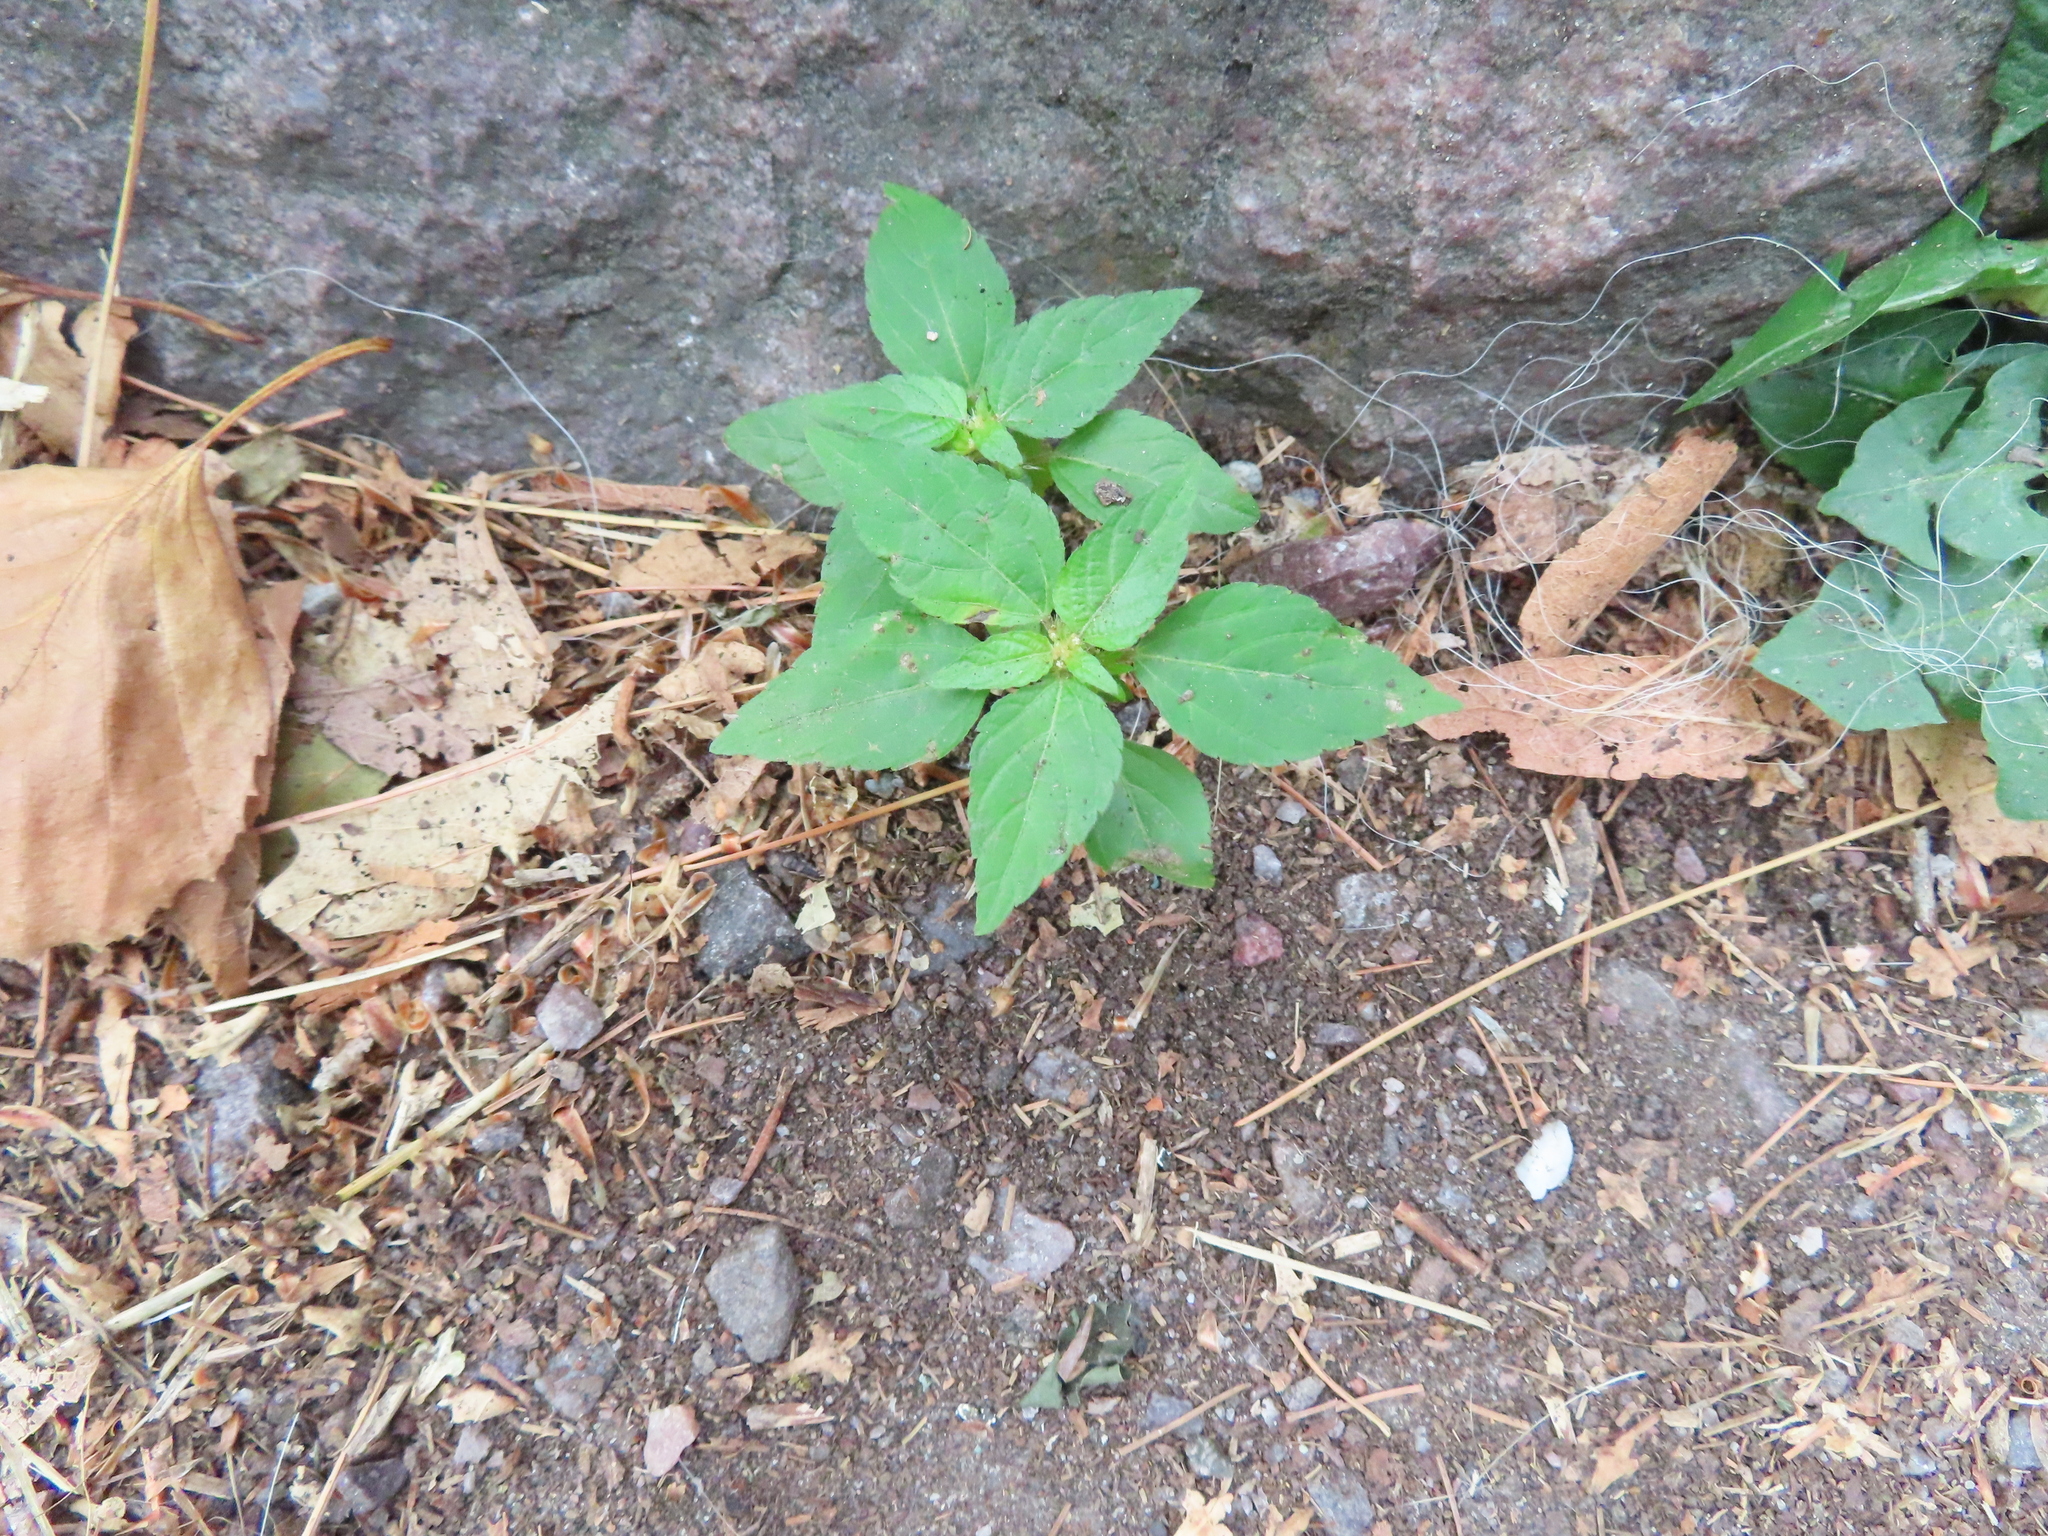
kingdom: Plantae
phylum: Tracheophyta
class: Magnoliopsida
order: Malpighiales
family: Euphorbiaceae
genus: Acalypha
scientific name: Acalypha rhomboidea
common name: Rhombic copperleaf
